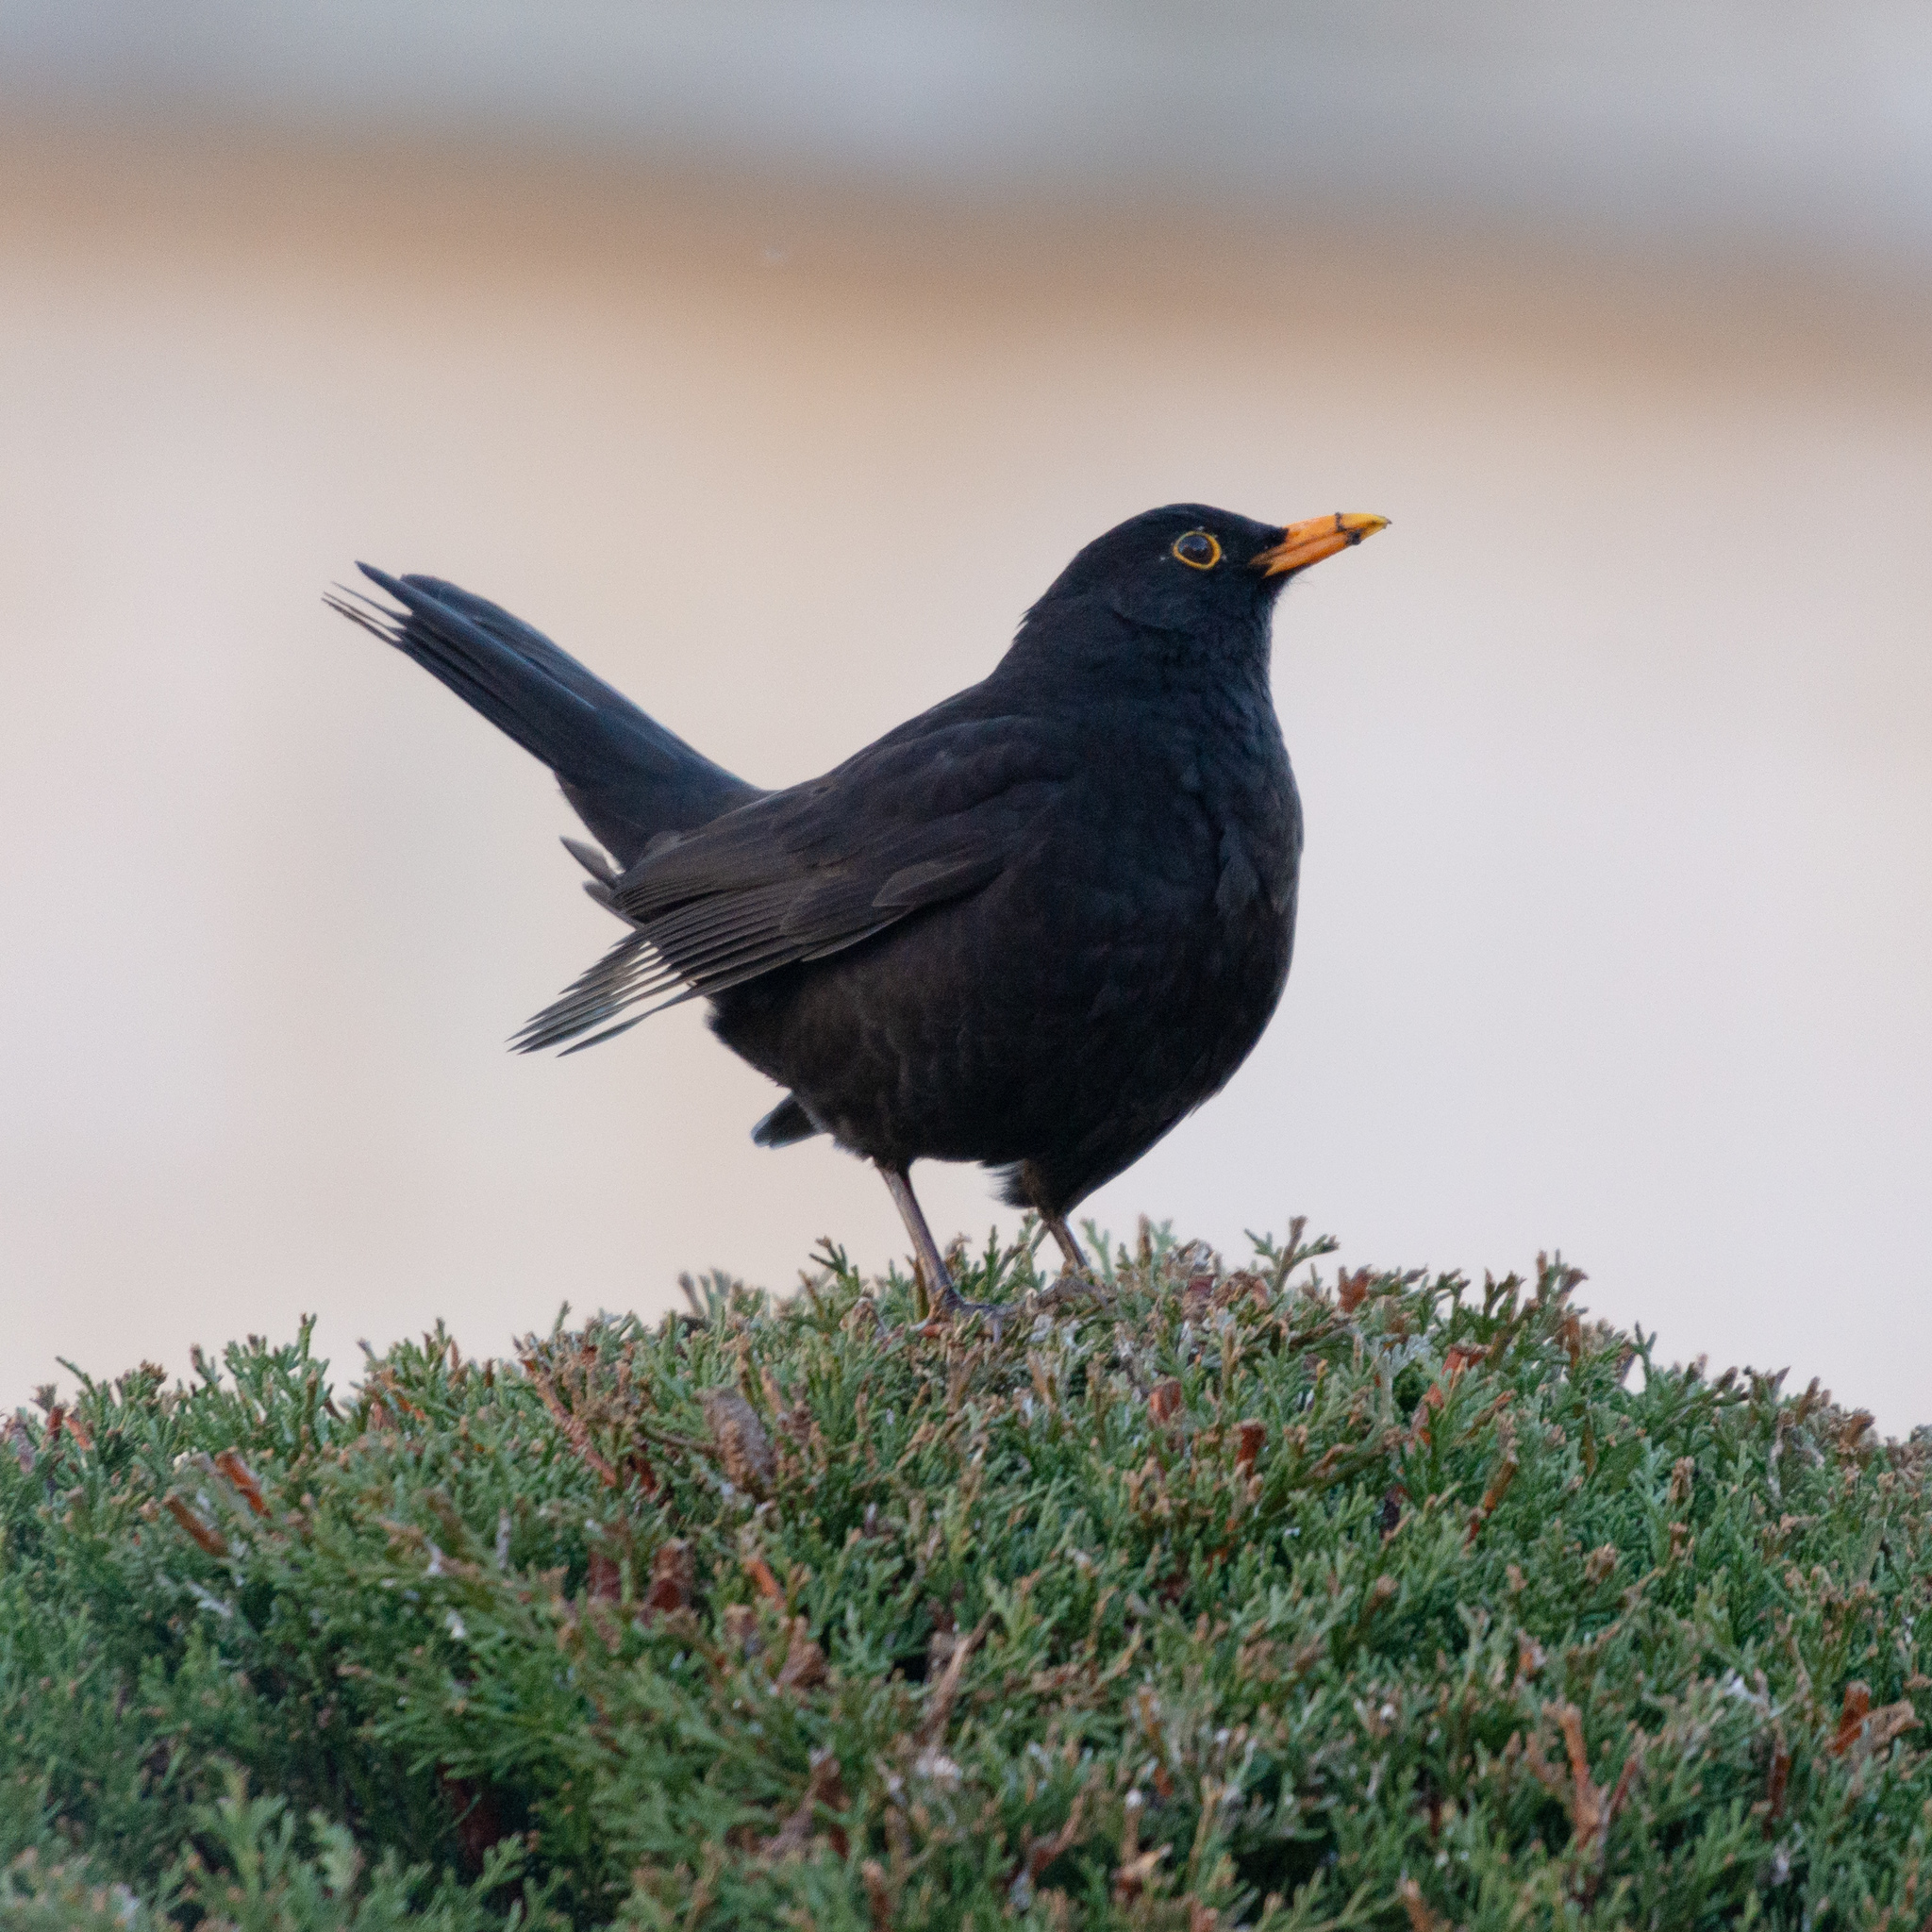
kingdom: Animalia
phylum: Chordata
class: Aves
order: Passeriformes
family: Turdidae
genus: Turdus
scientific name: Turdus merula
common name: Common blackbird
